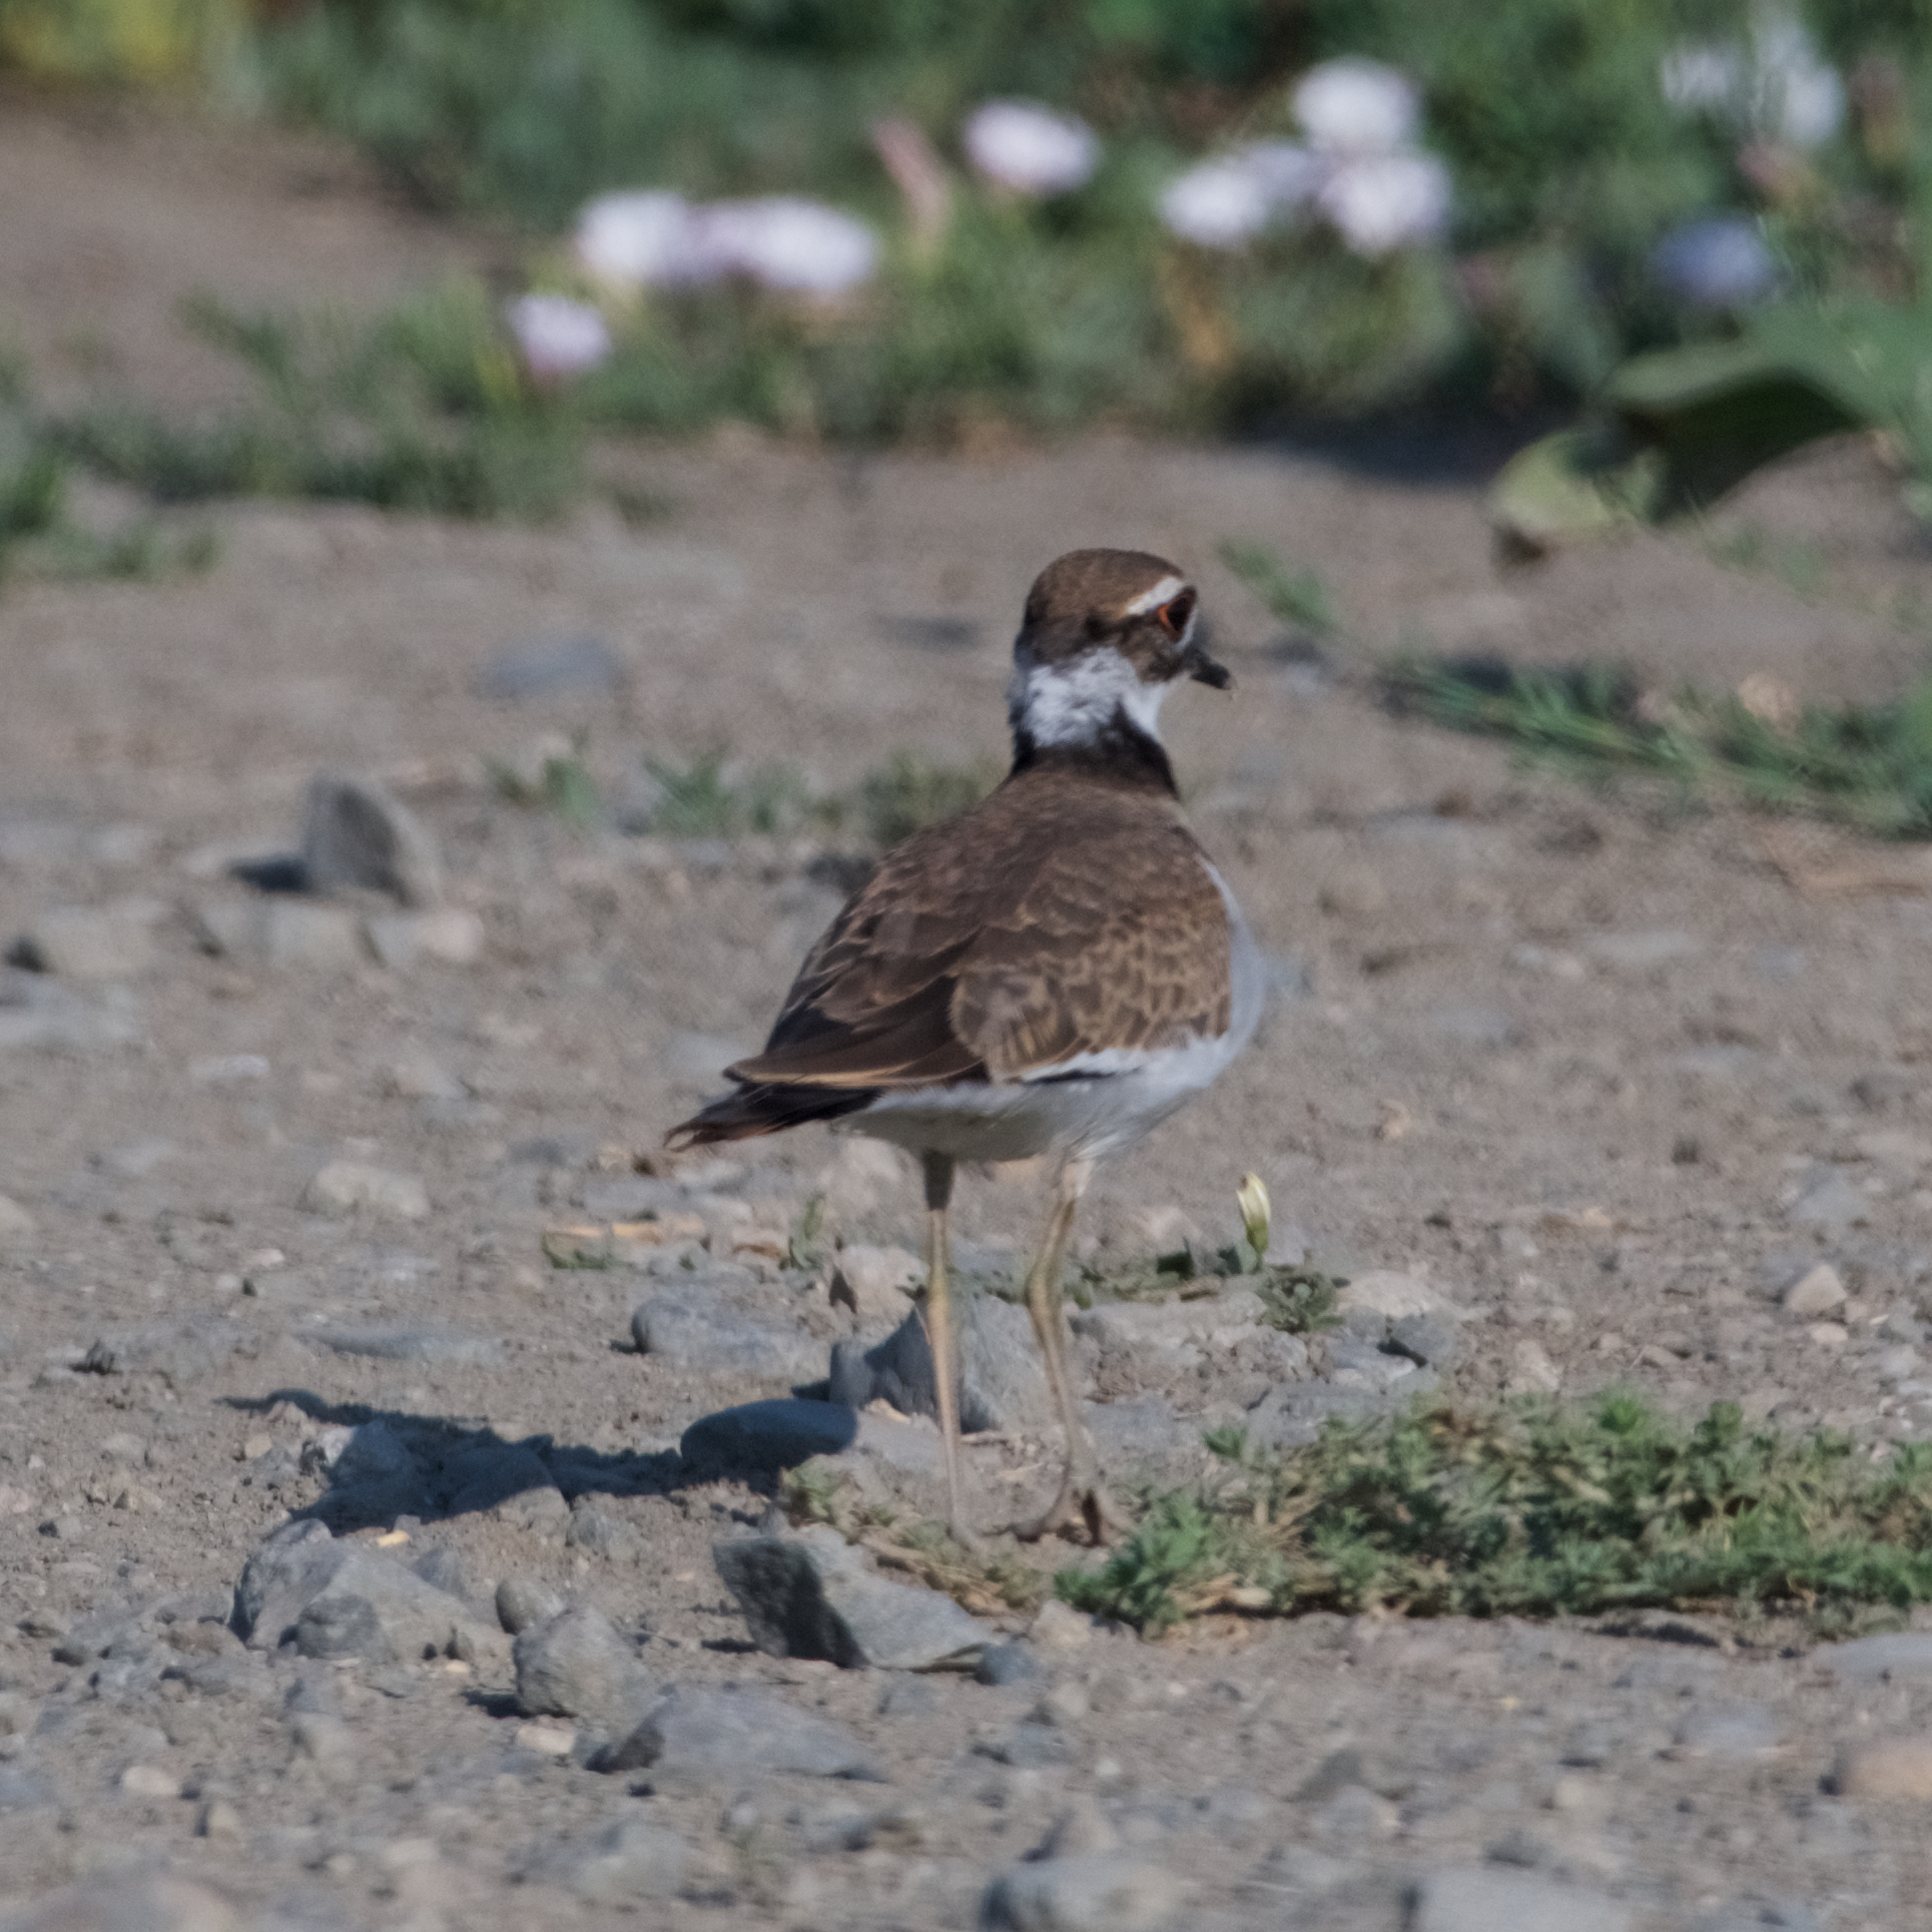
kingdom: Animalia
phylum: Chordata
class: Aves
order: Charadriiformes
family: Charadriidae
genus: Charadrius
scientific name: Charadrius vociferus
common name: Killdeer
